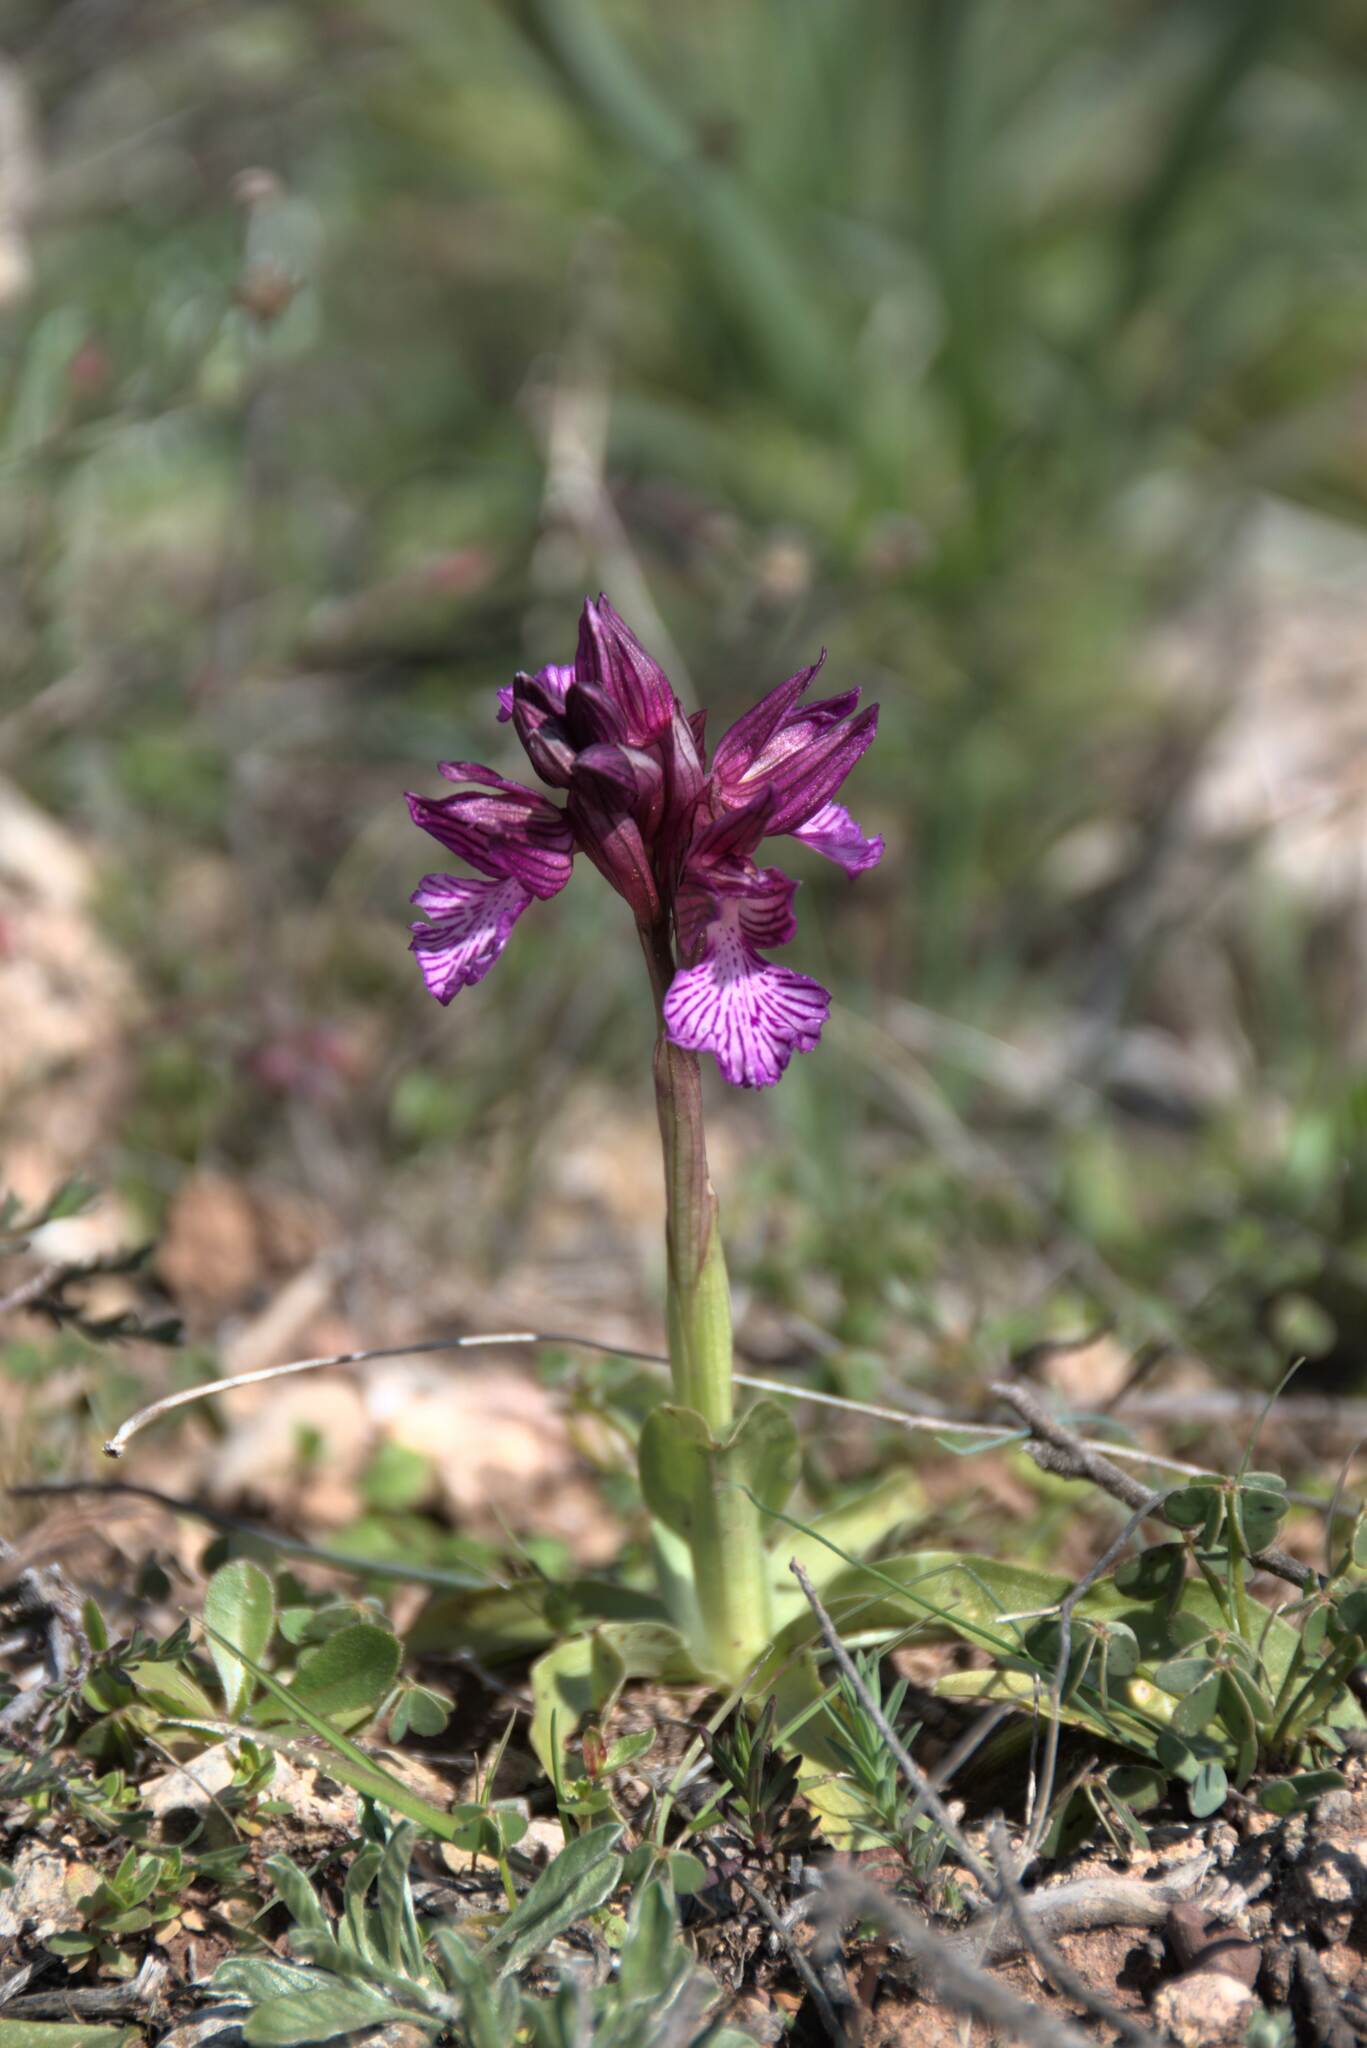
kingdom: Plantae
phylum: Tracheophyta
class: Liliopsida
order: Asparagales
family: Orchidaceae
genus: Anacamptis
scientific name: Anacamptis papilionacea
